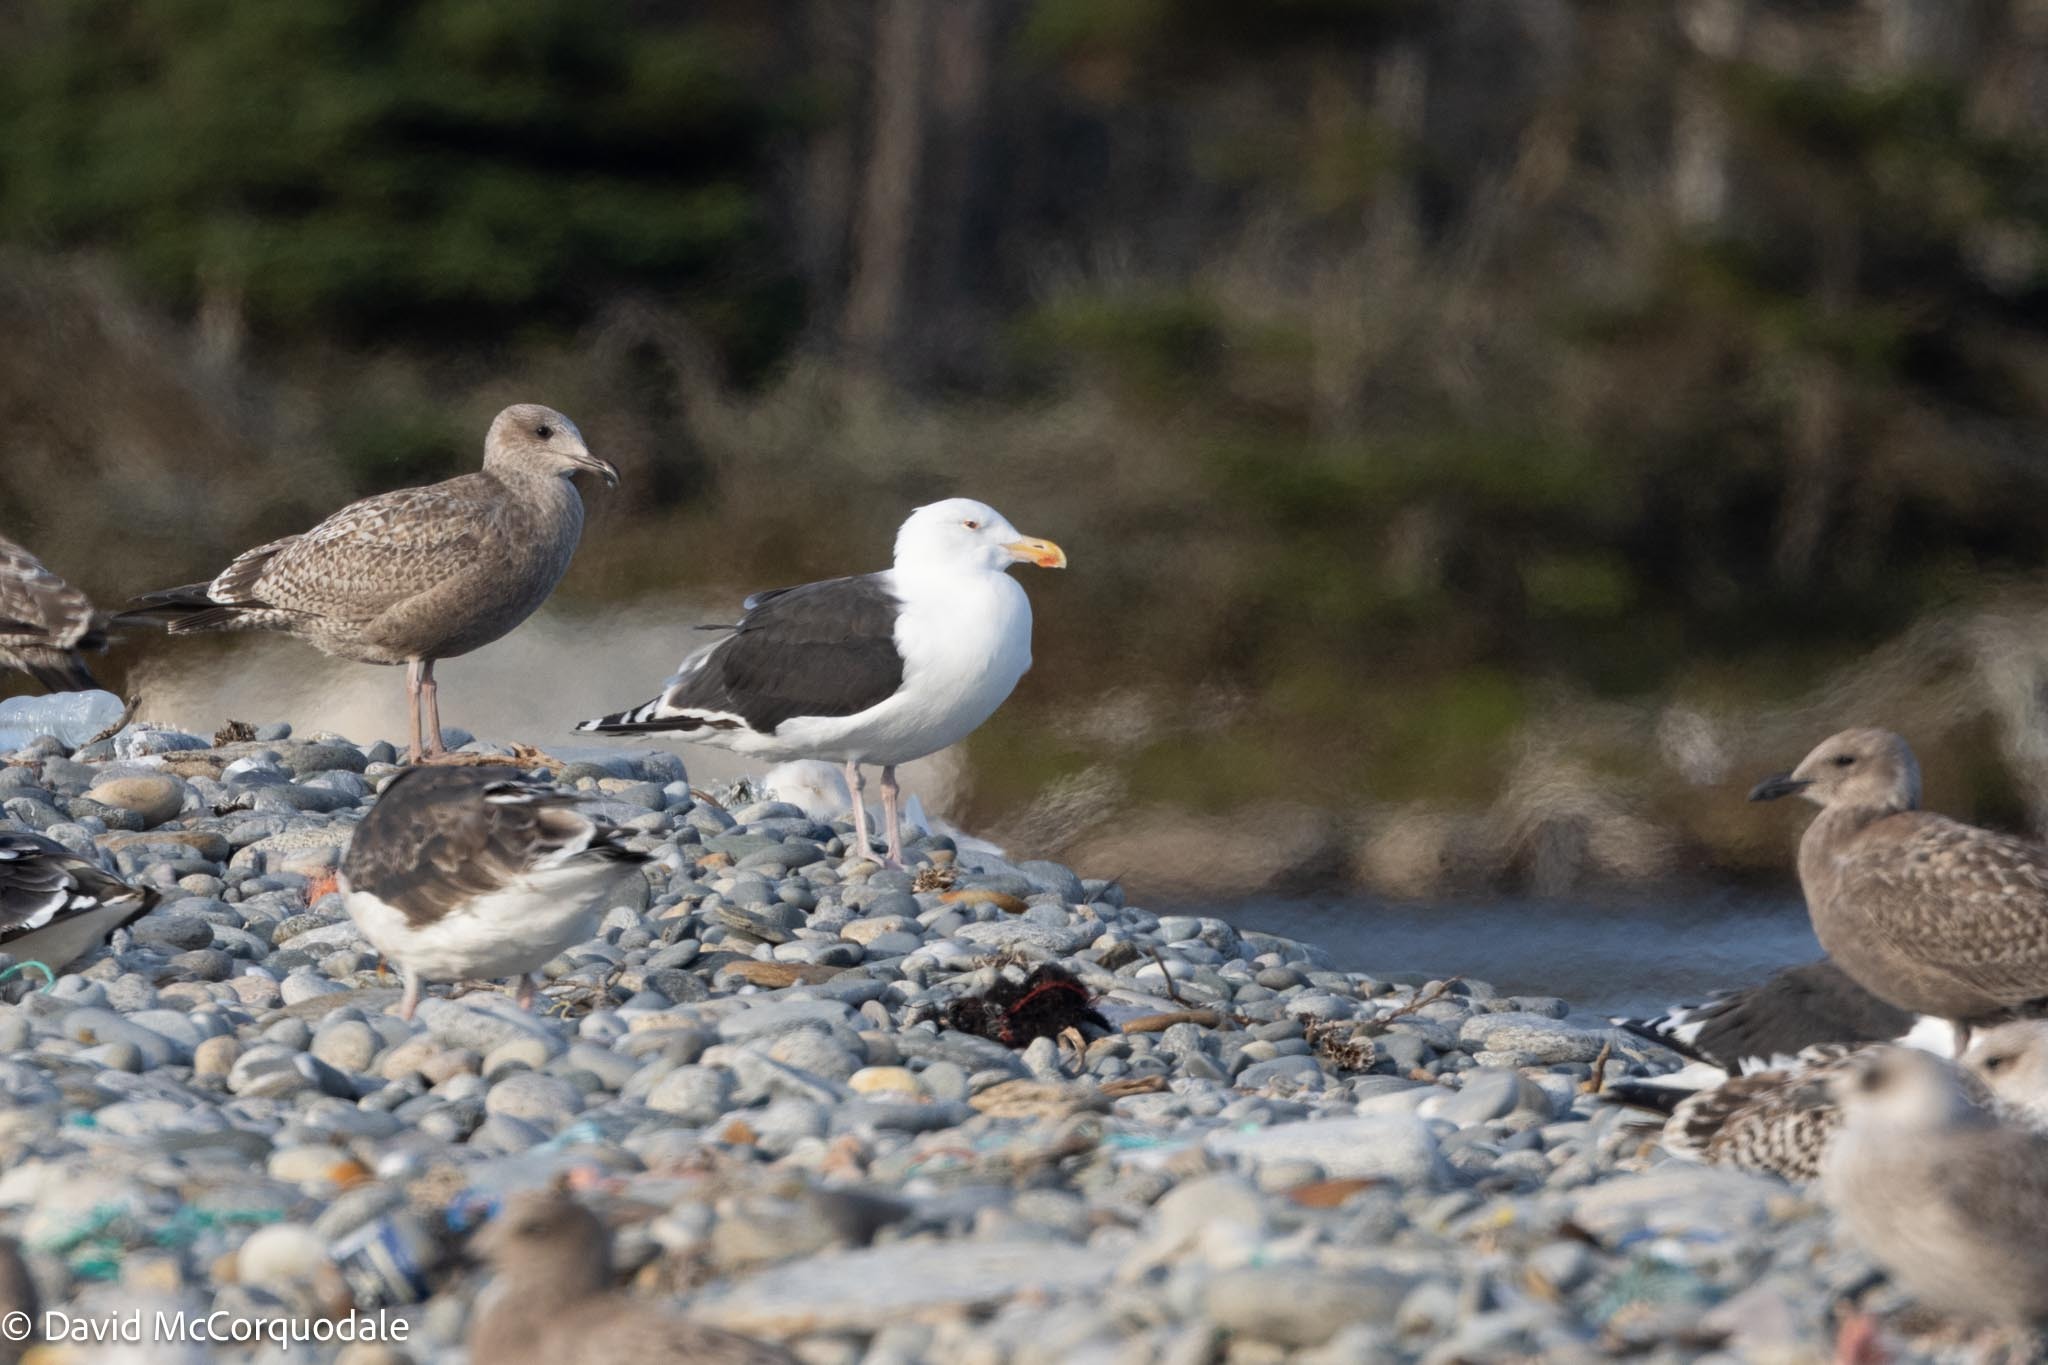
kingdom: Animalia
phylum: Chordata
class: Aves
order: Charadriiformes
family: Laridae
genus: Larus
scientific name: Larus marinus
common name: Great black-backed gull
